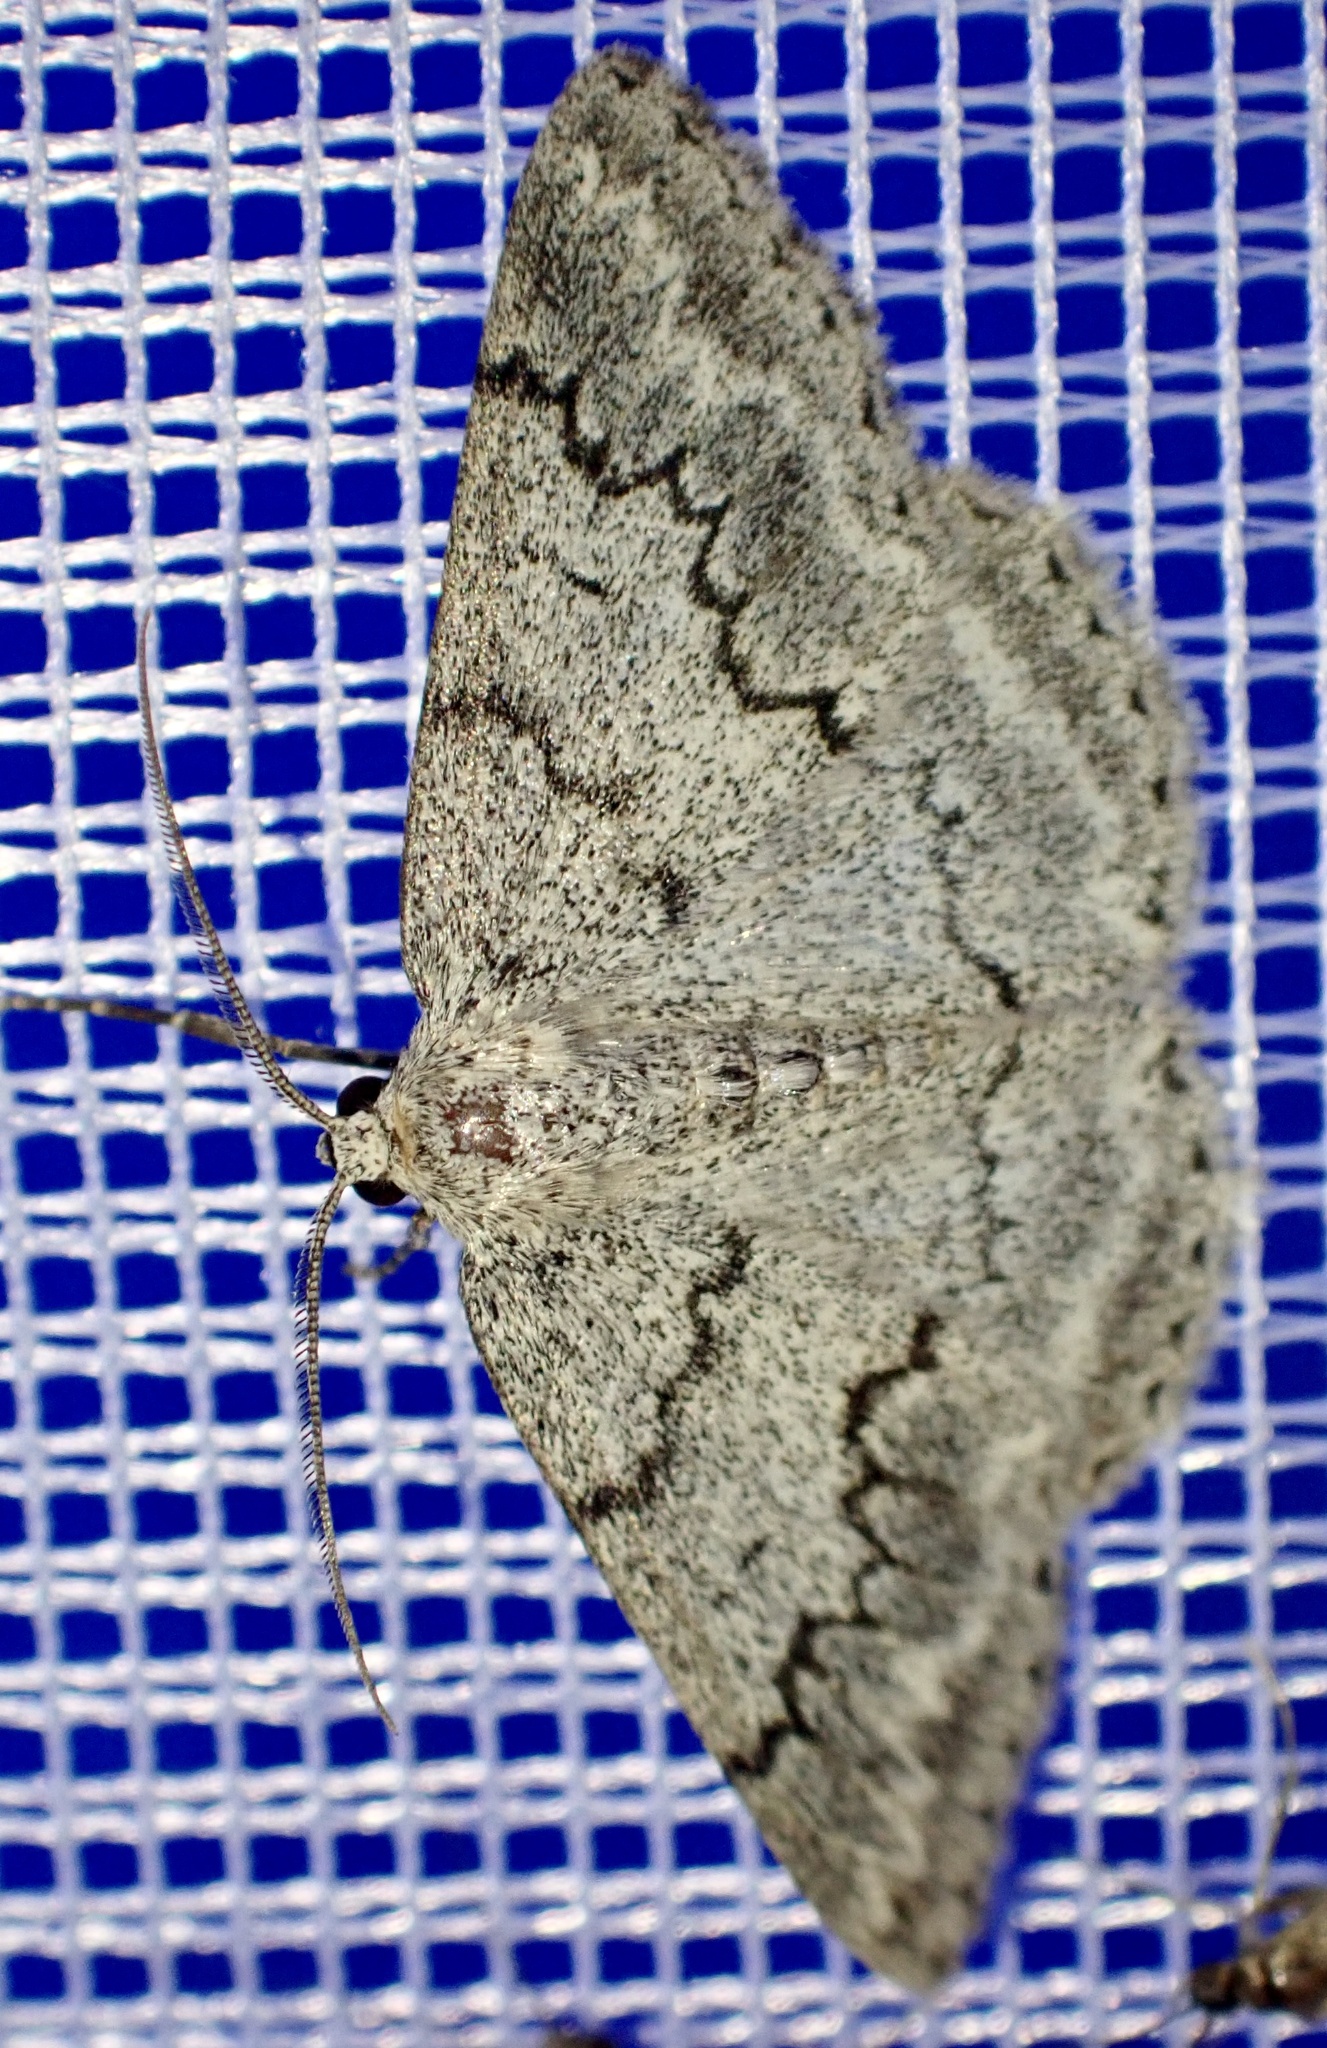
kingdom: Animalia
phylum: Arthropoda
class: Insecta
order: Lepidoptera
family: Geometridae
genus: Pseudoterpna
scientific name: Pseudoterpna coronillaria
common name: Jersey emerald
